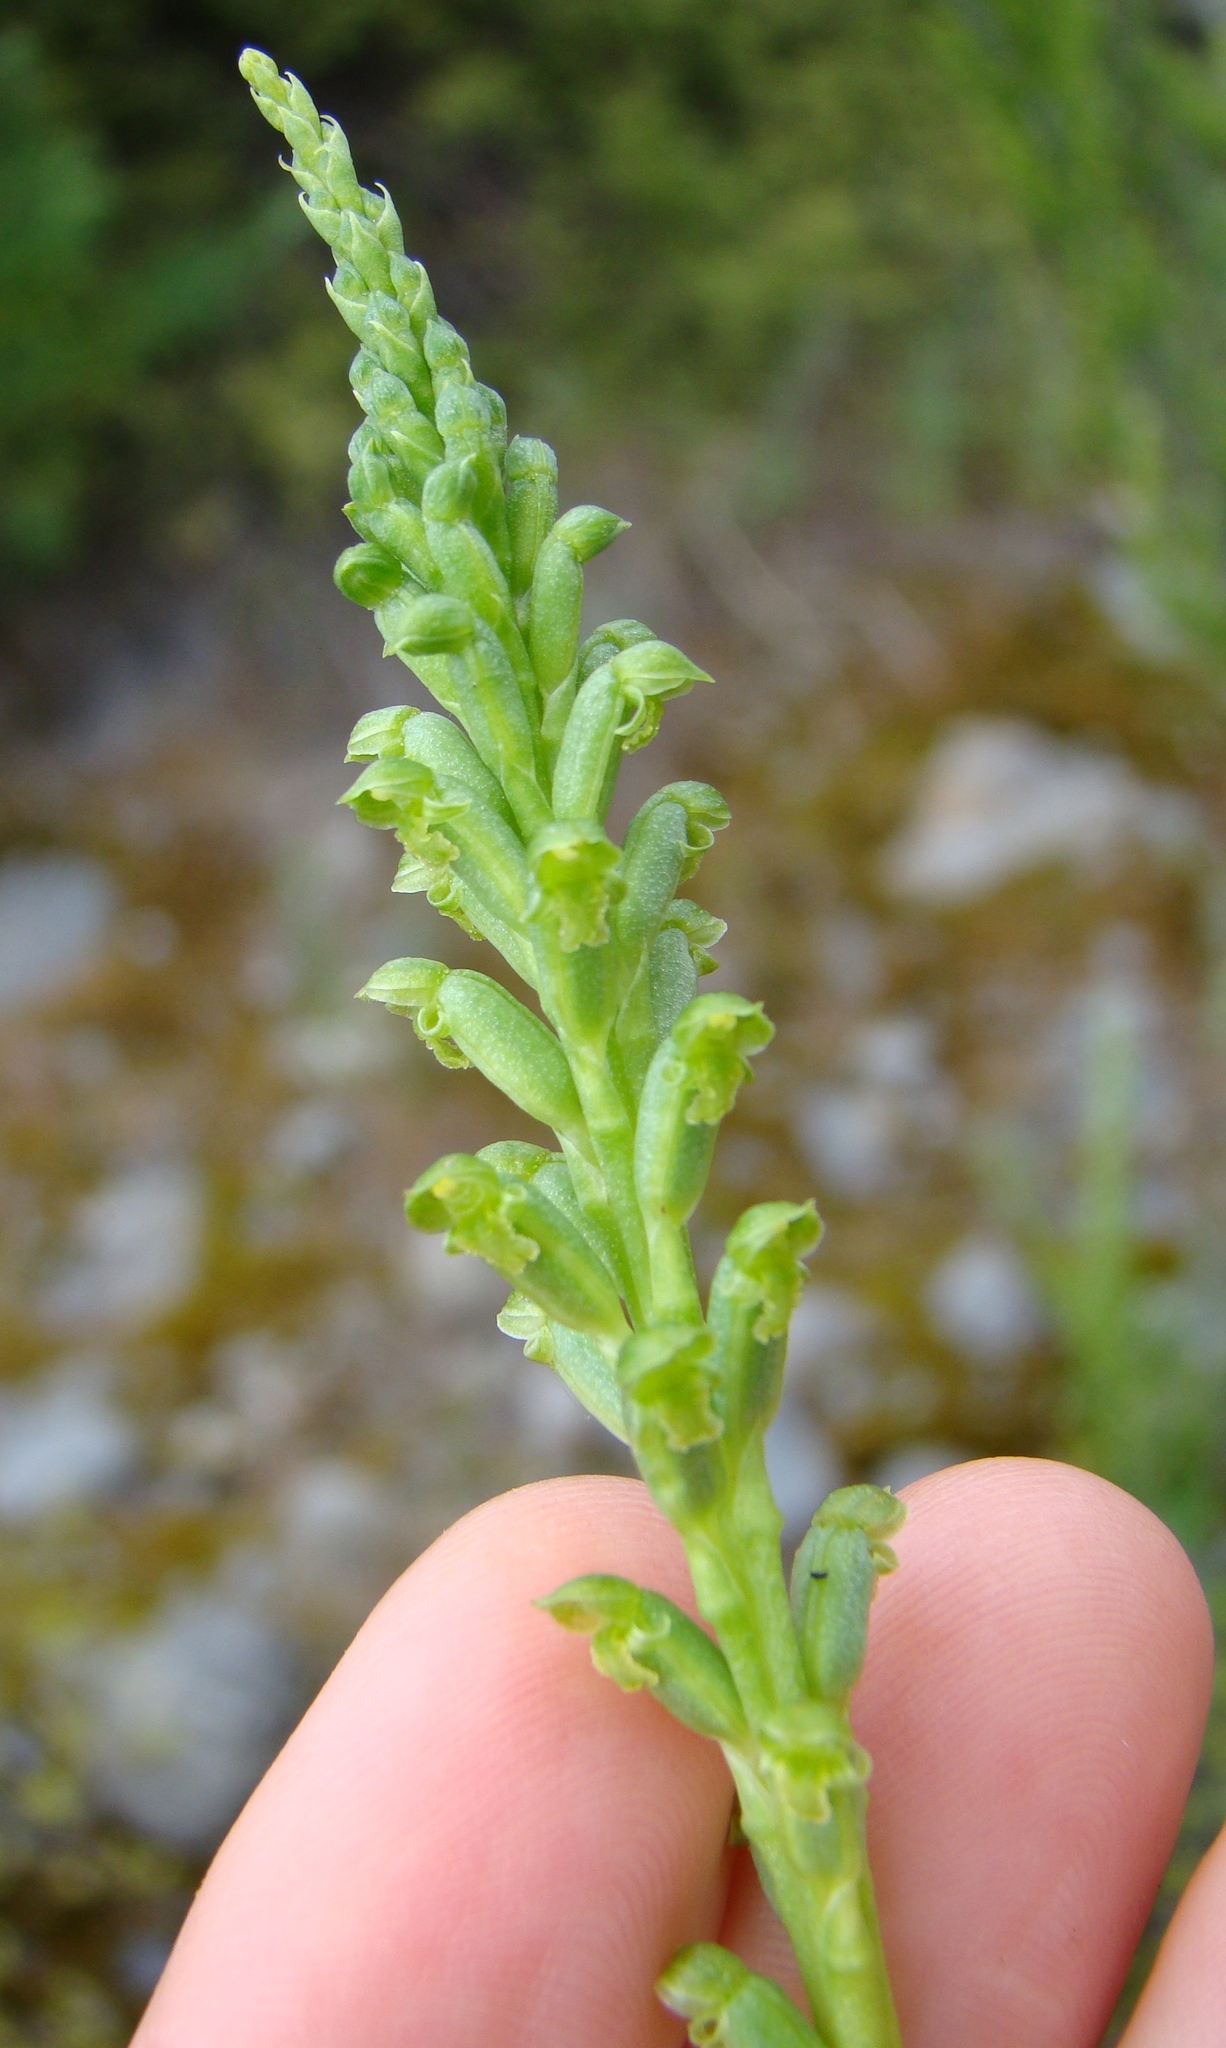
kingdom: Plantae
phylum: Tracheophyta
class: Liliopsida
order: Asparagales
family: Orchidaceae
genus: Microtis
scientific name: Microtis unifolia
